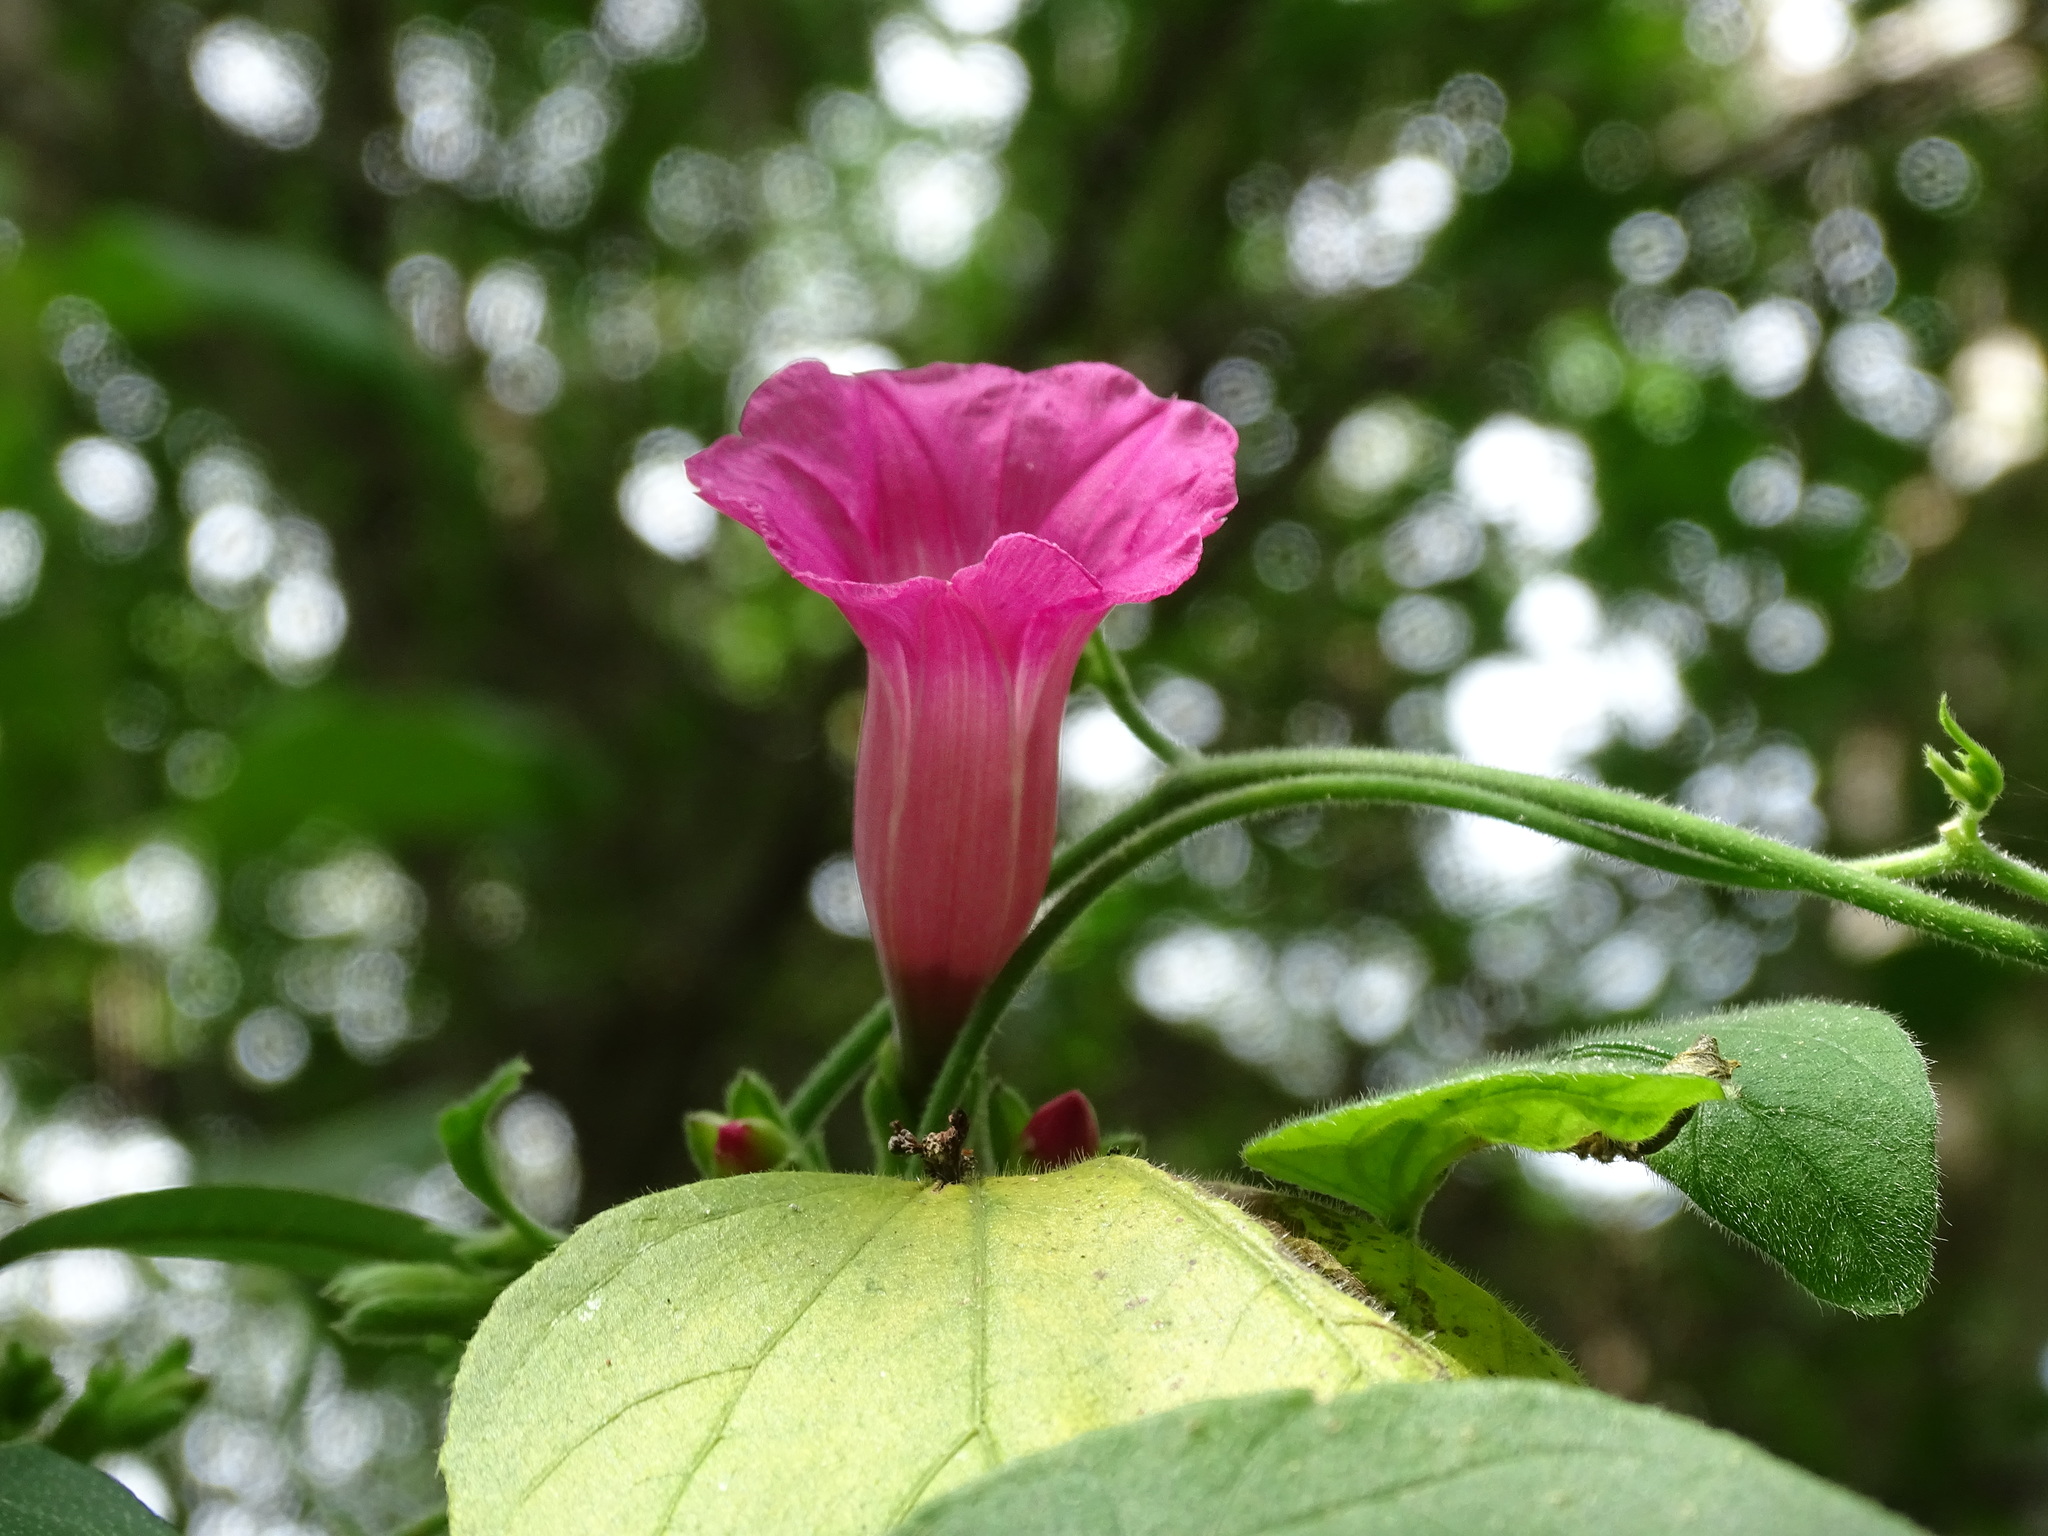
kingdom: Plantae
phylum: Tracheophyta
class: Magnoliopsida
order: Solanales
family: Convolvulaceae
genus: Ipomoea
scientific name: Ipomoea peteri
